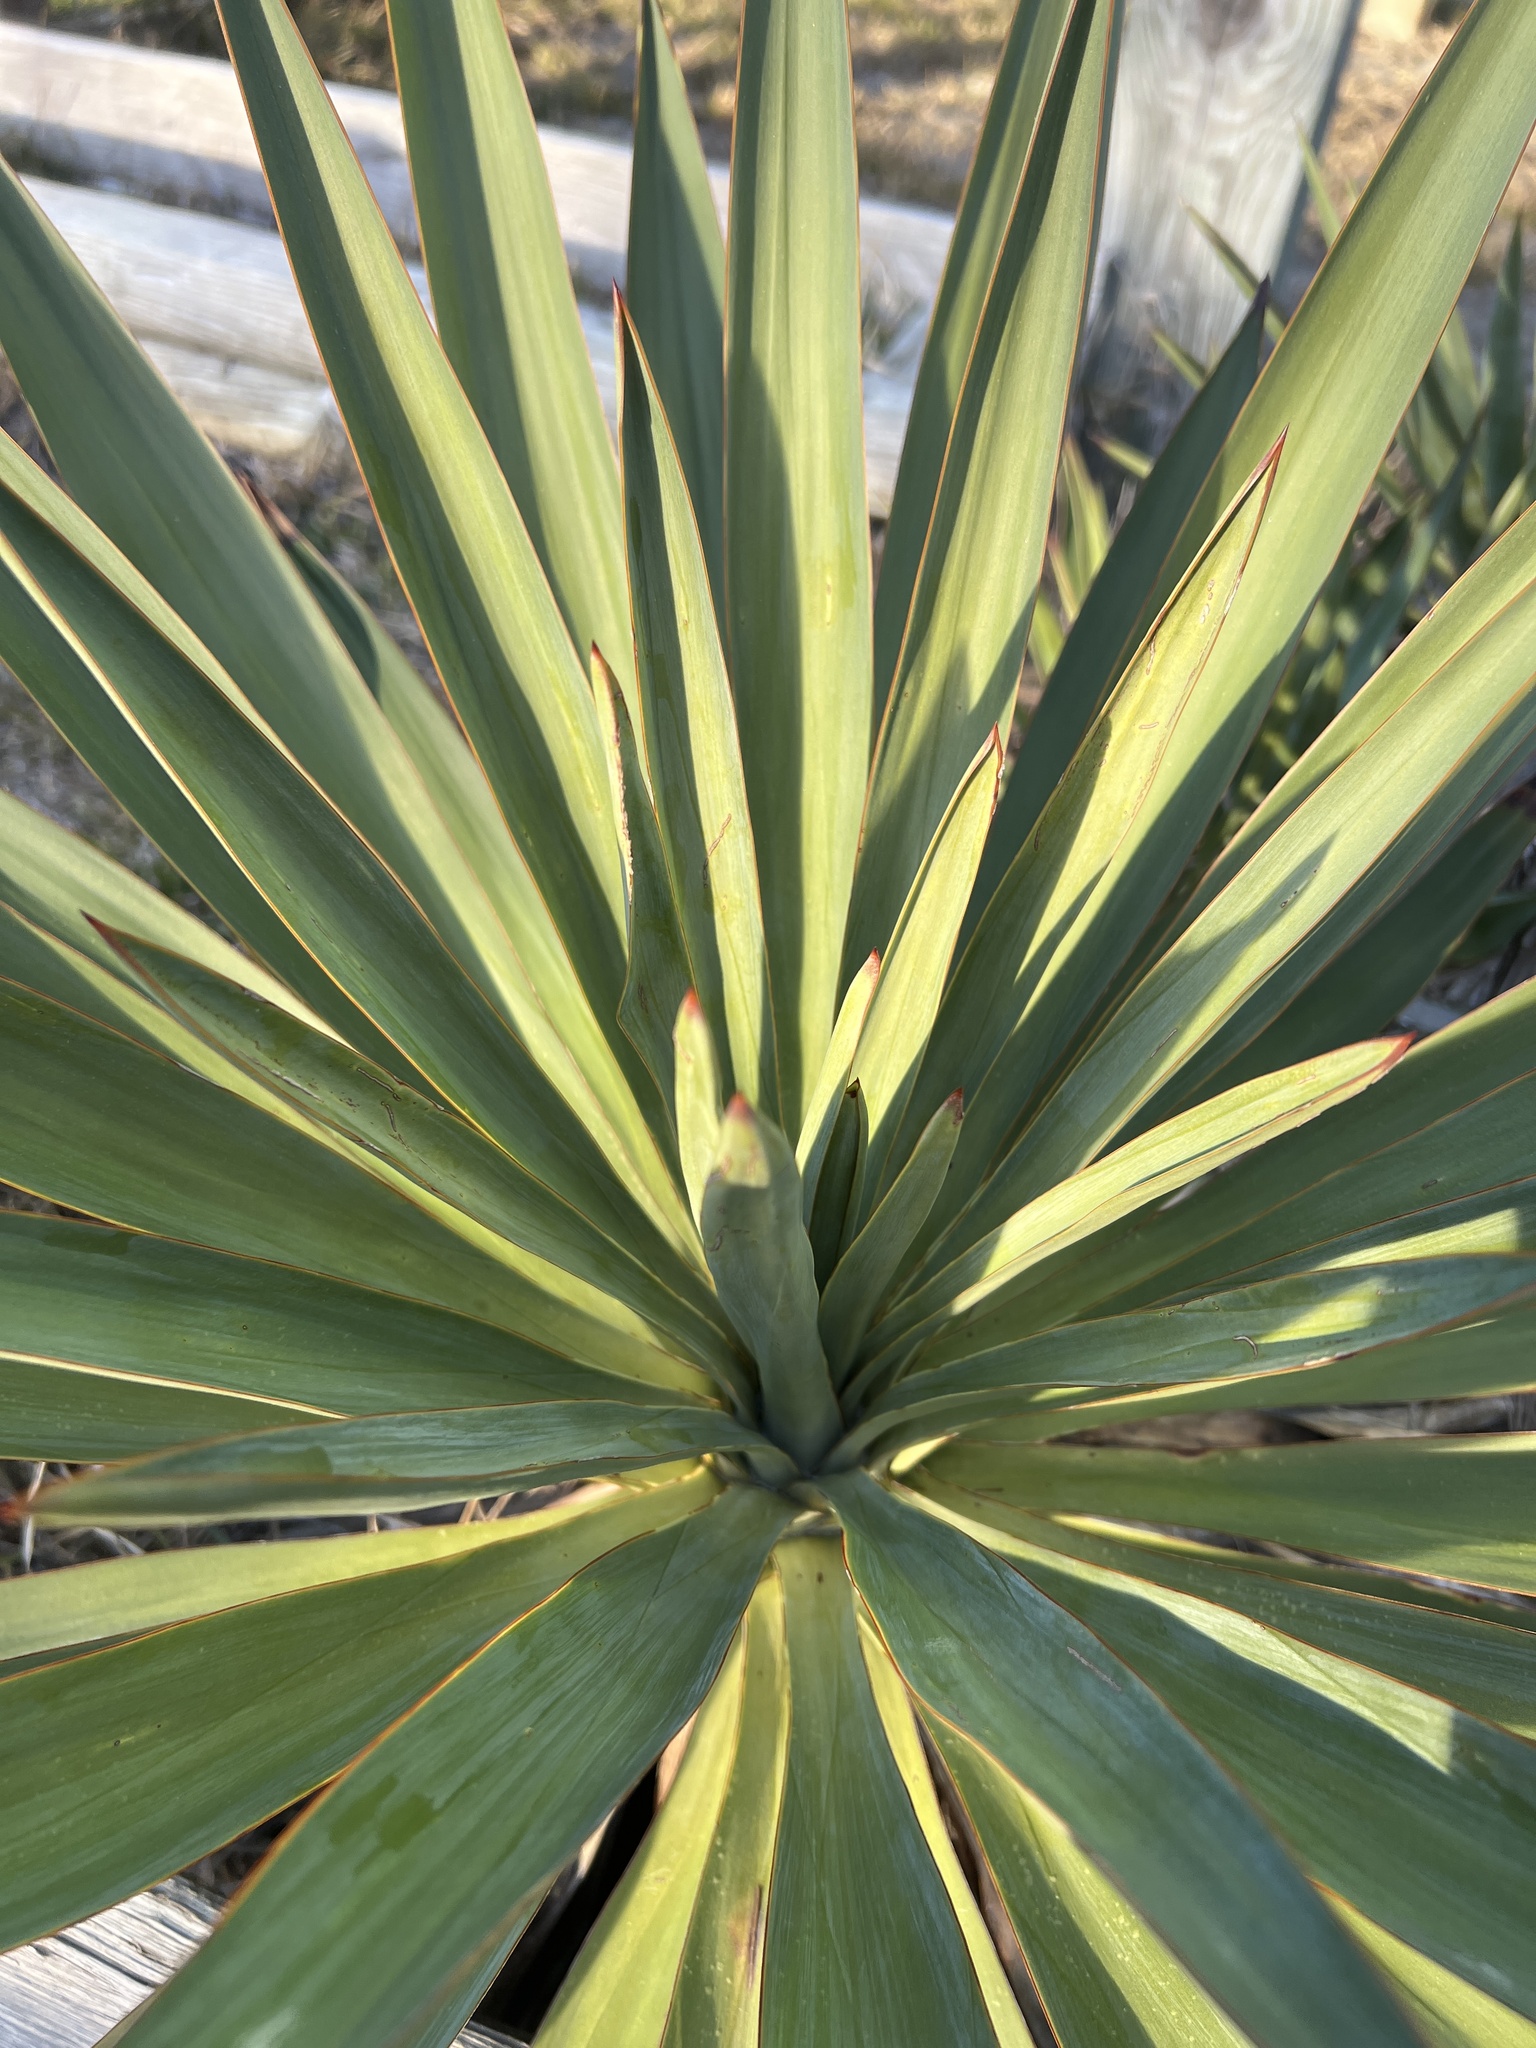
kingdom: Plantae
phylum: Tracheophyta
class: Liliopsida
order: Asparagales
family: Asparagaceae
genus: Yucca
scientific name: Yucca gloriosa
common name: Spanish-dagger
